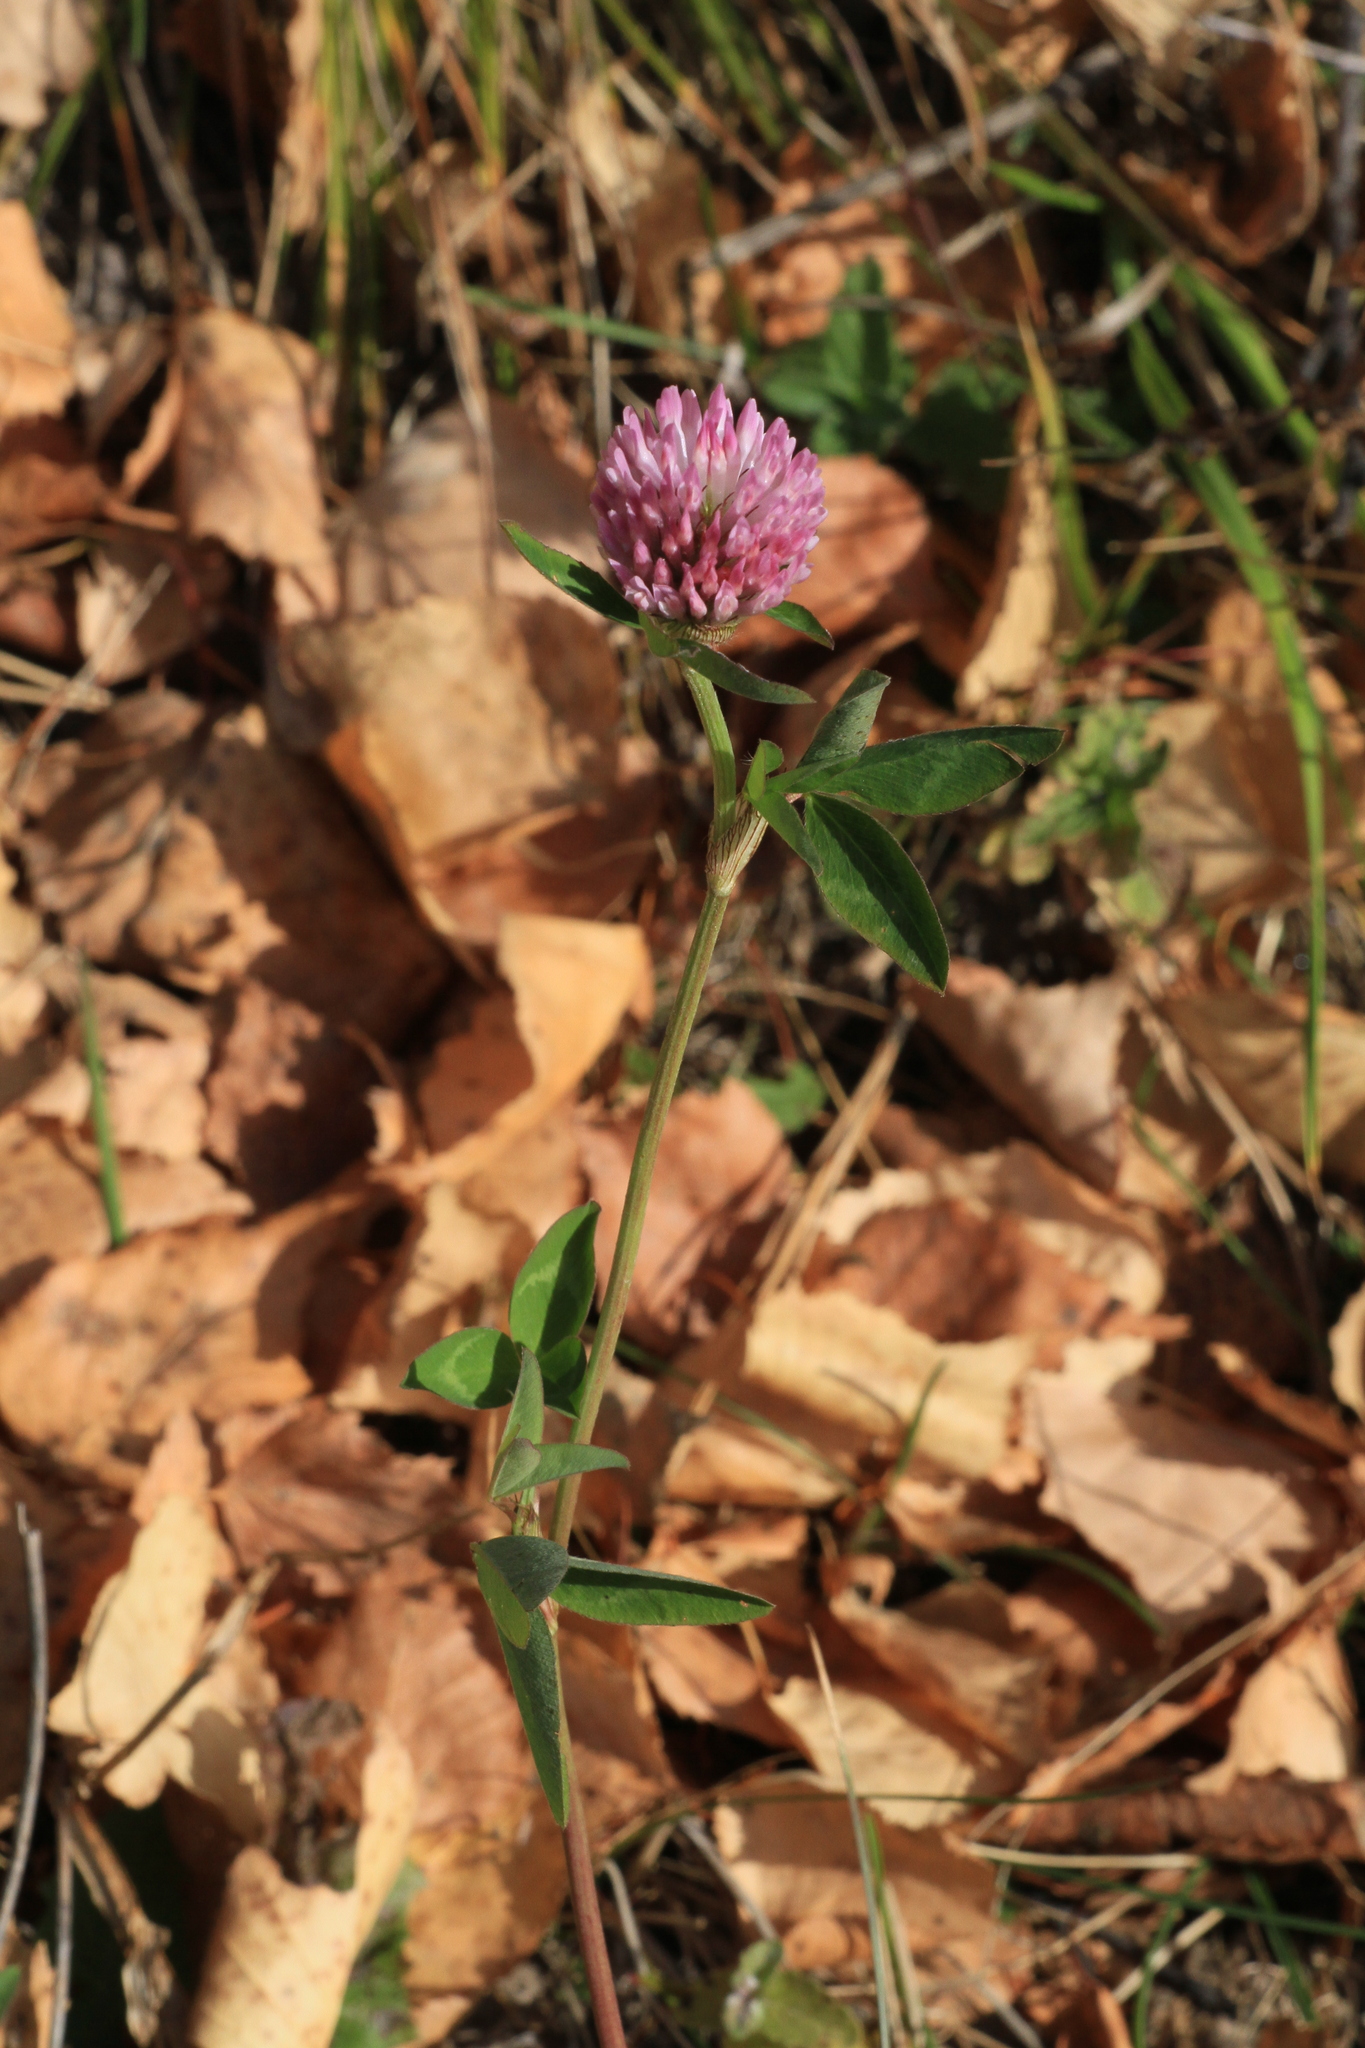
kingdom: Plantae
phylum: Tracheophyta
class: Magnoliopsida
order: Fabales
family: Fabaceae
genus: Trifolium
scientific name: Trifolium pratense
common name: Red clover
